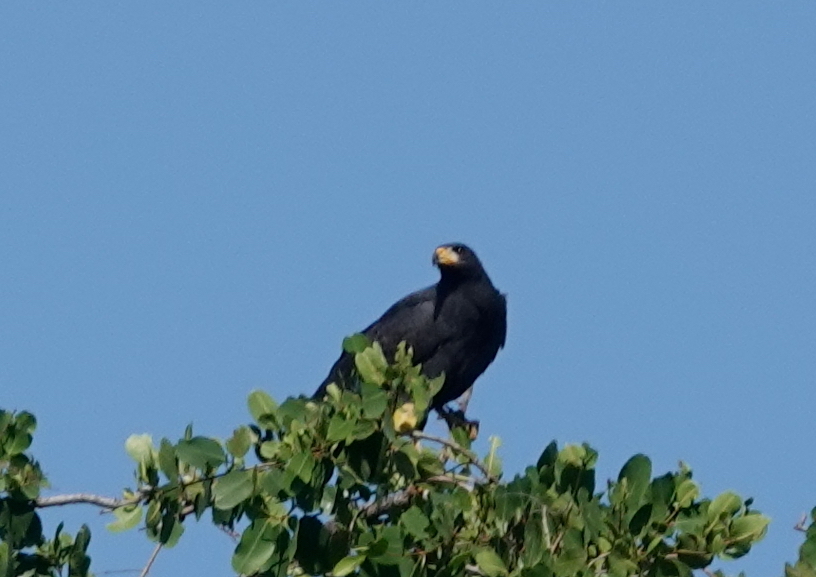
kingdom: Animalia
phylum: Chordata
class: Aves
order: Accipitriformes
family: Accipitridae
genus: Buteogallus
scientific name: Buteogallus anthracinus
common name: Common black hawk
